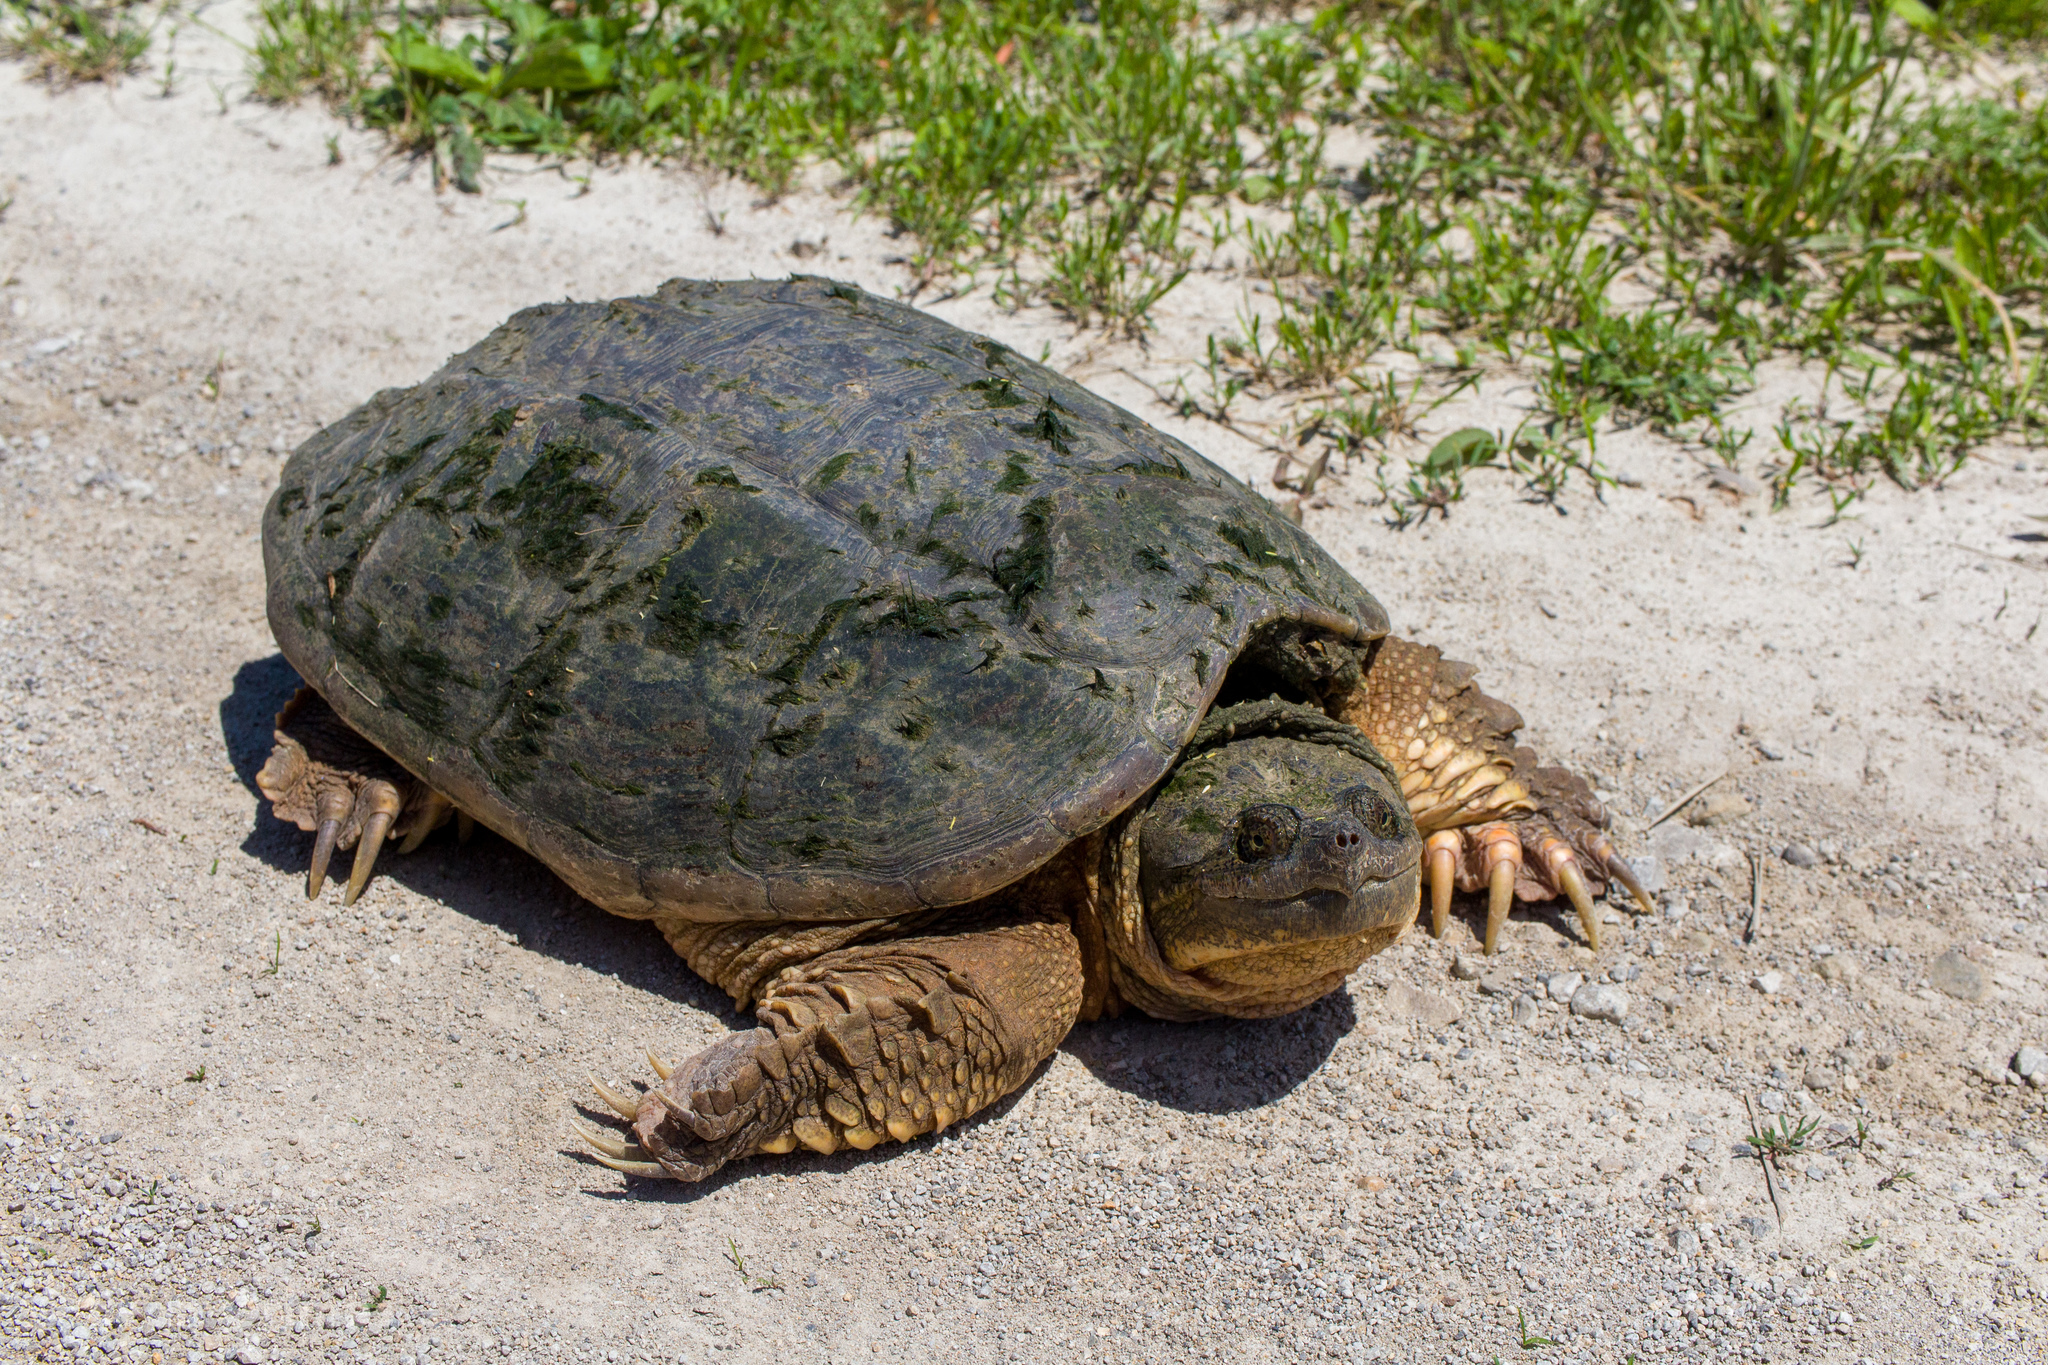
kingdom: Animalia
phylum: Chordata
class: Testudines
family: Chelydridae
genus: Chelydra
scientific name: Chelydra serpentina
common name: Common snapping turtle
